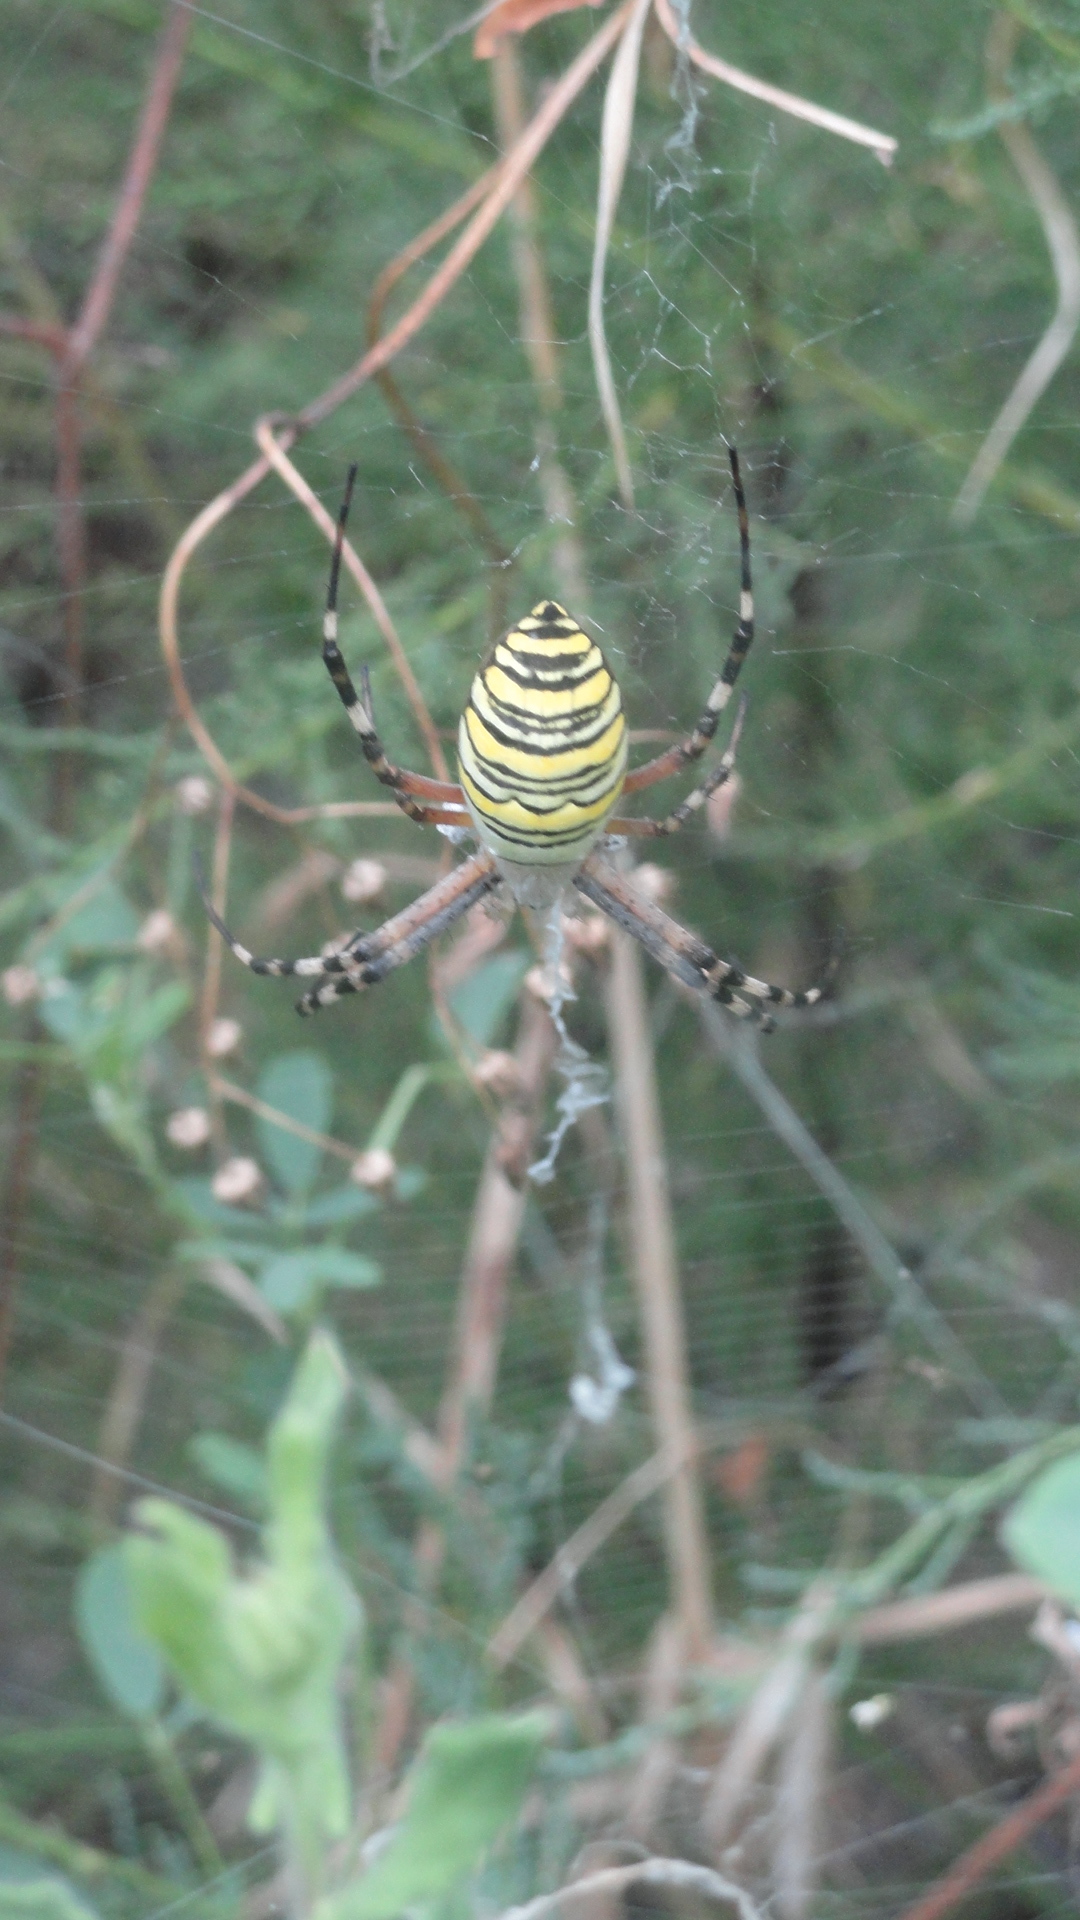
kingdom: Animalia
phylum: Arthropoda
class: Arachnida
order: Araneae
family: Araneidae
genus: Argiope
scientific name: Argiope bruennichi
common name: Wasp spider
